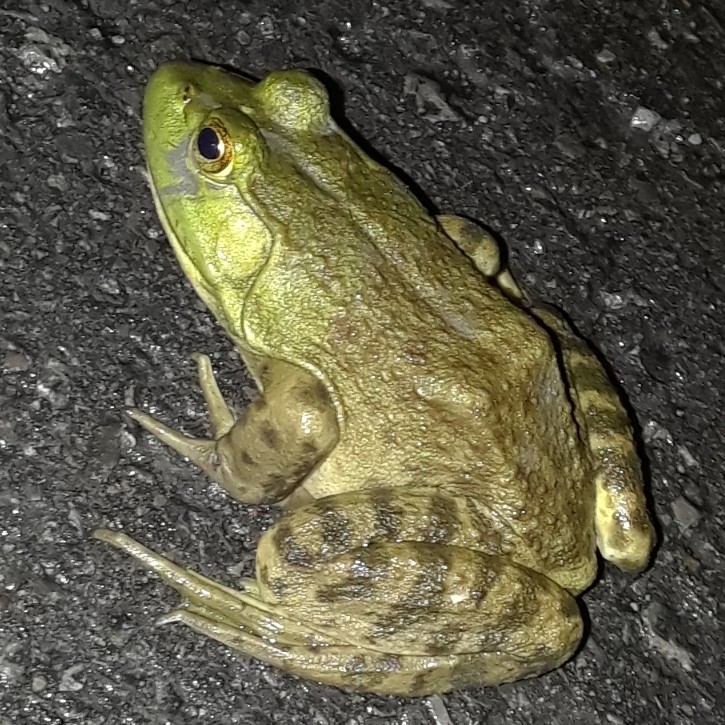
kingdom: Animalia
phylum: Chordata
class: Amphibia
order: Anura
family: Ranidae
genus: Lithobates
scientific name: Lithobates catesbeianus
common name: American bullfrog
